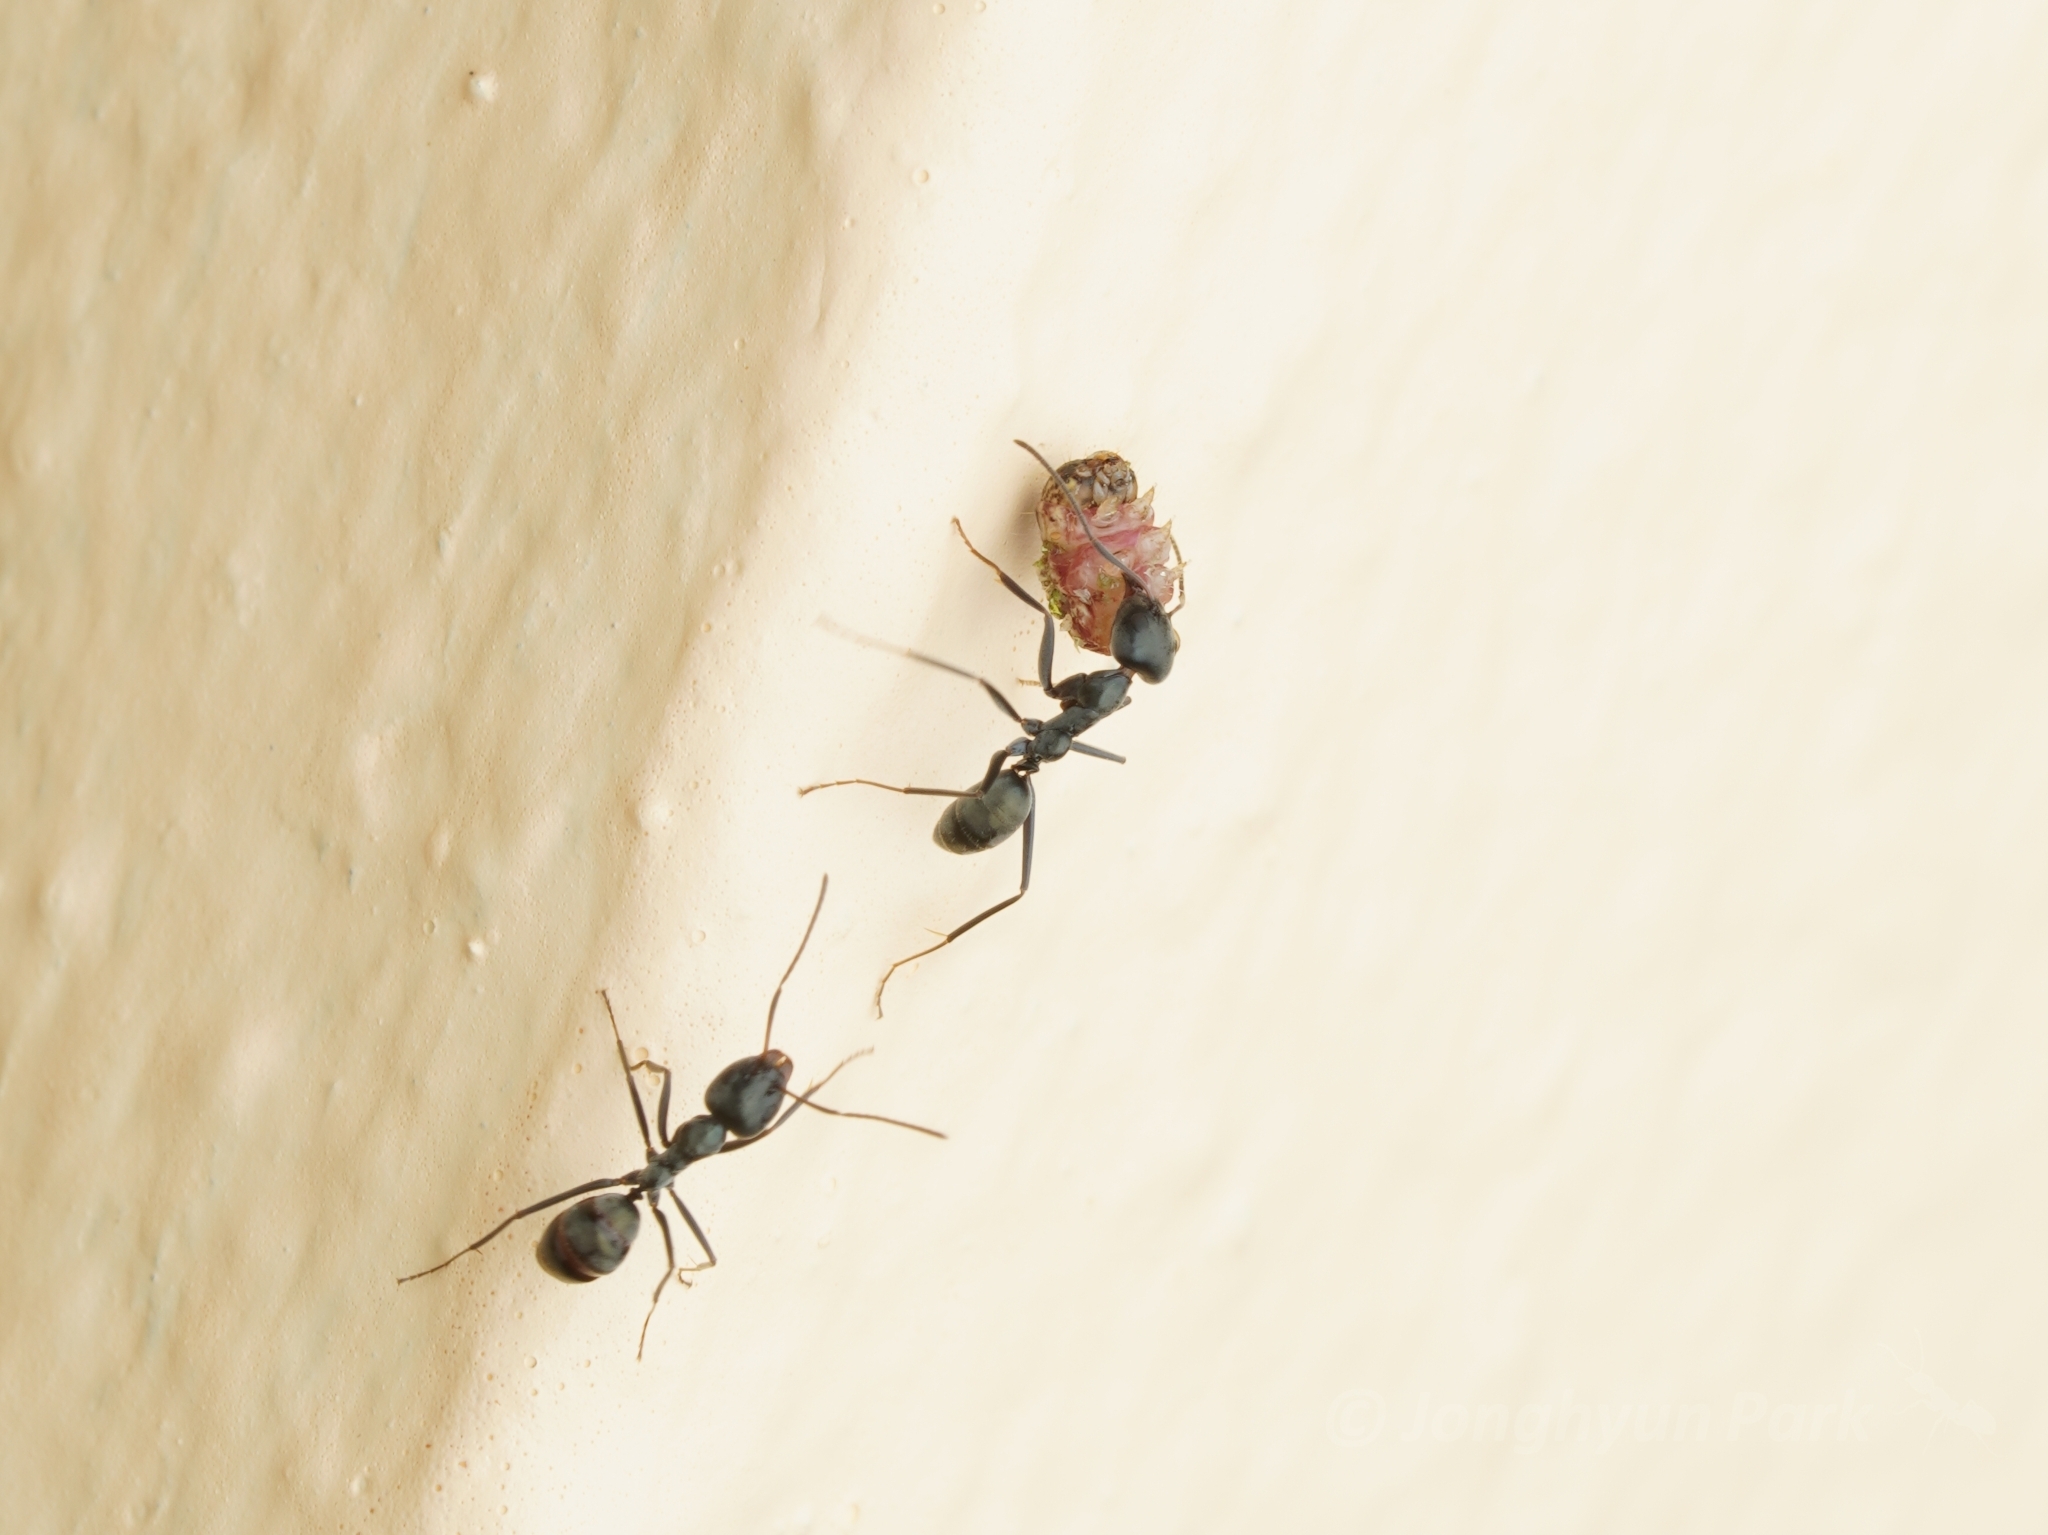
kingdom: Animalia
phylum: Arthropoda
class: Insecta
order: Hymenoptera
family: Formicidae
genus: Iridomyrmex
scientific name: Iridomyrmex anceps
